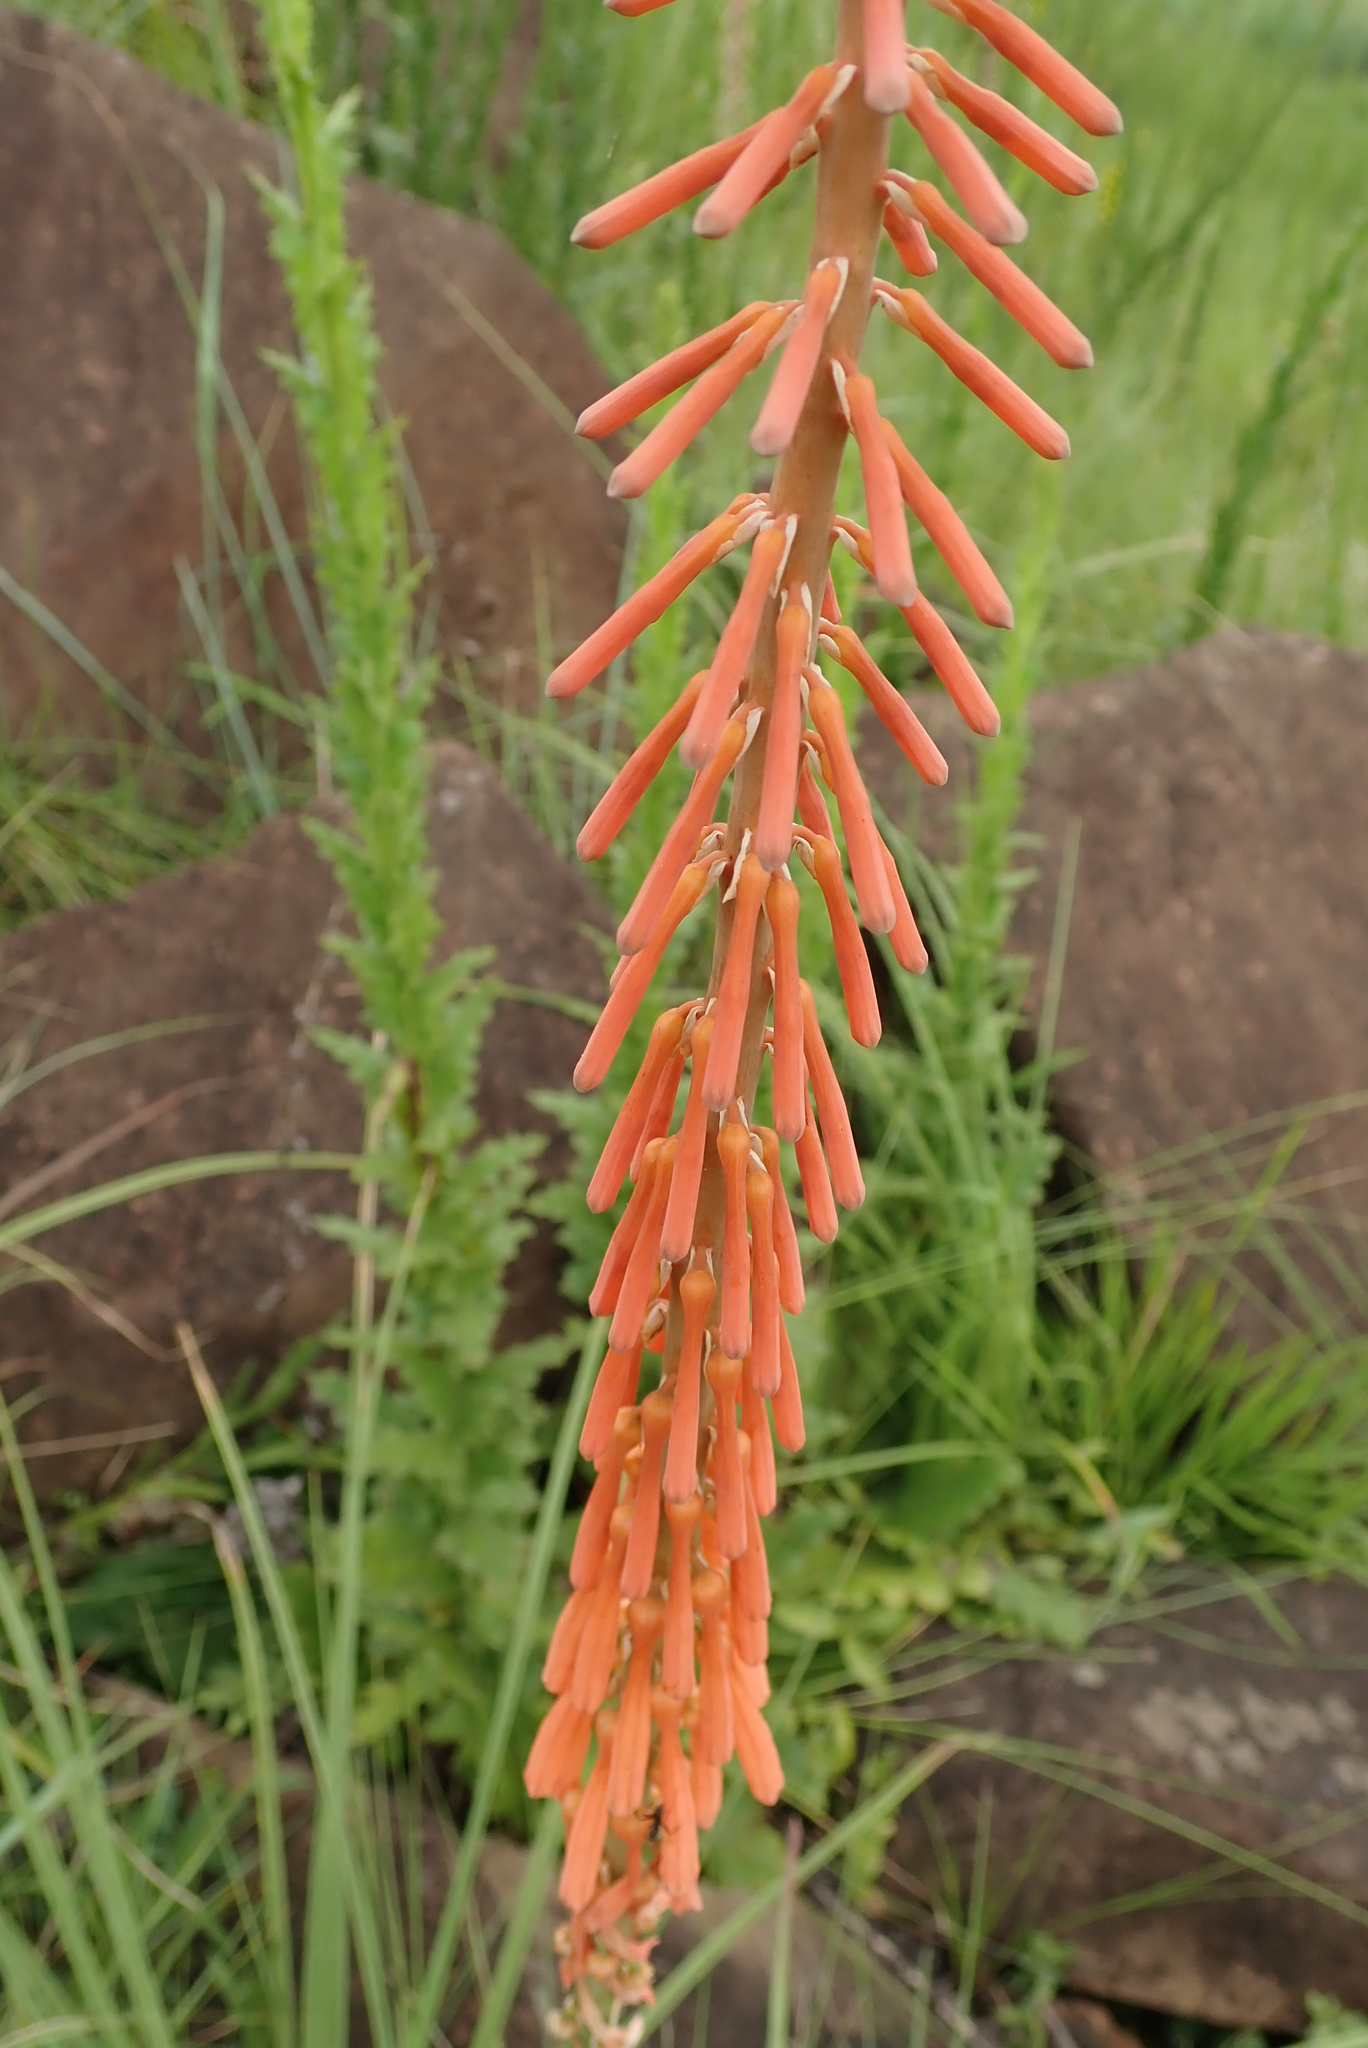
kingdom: Plantae
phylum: Tracheophyta
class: Liliopsida
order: Asparagales
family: Asphodelaceae
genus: Kniphofia
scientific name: Kniphofia laxiflora
